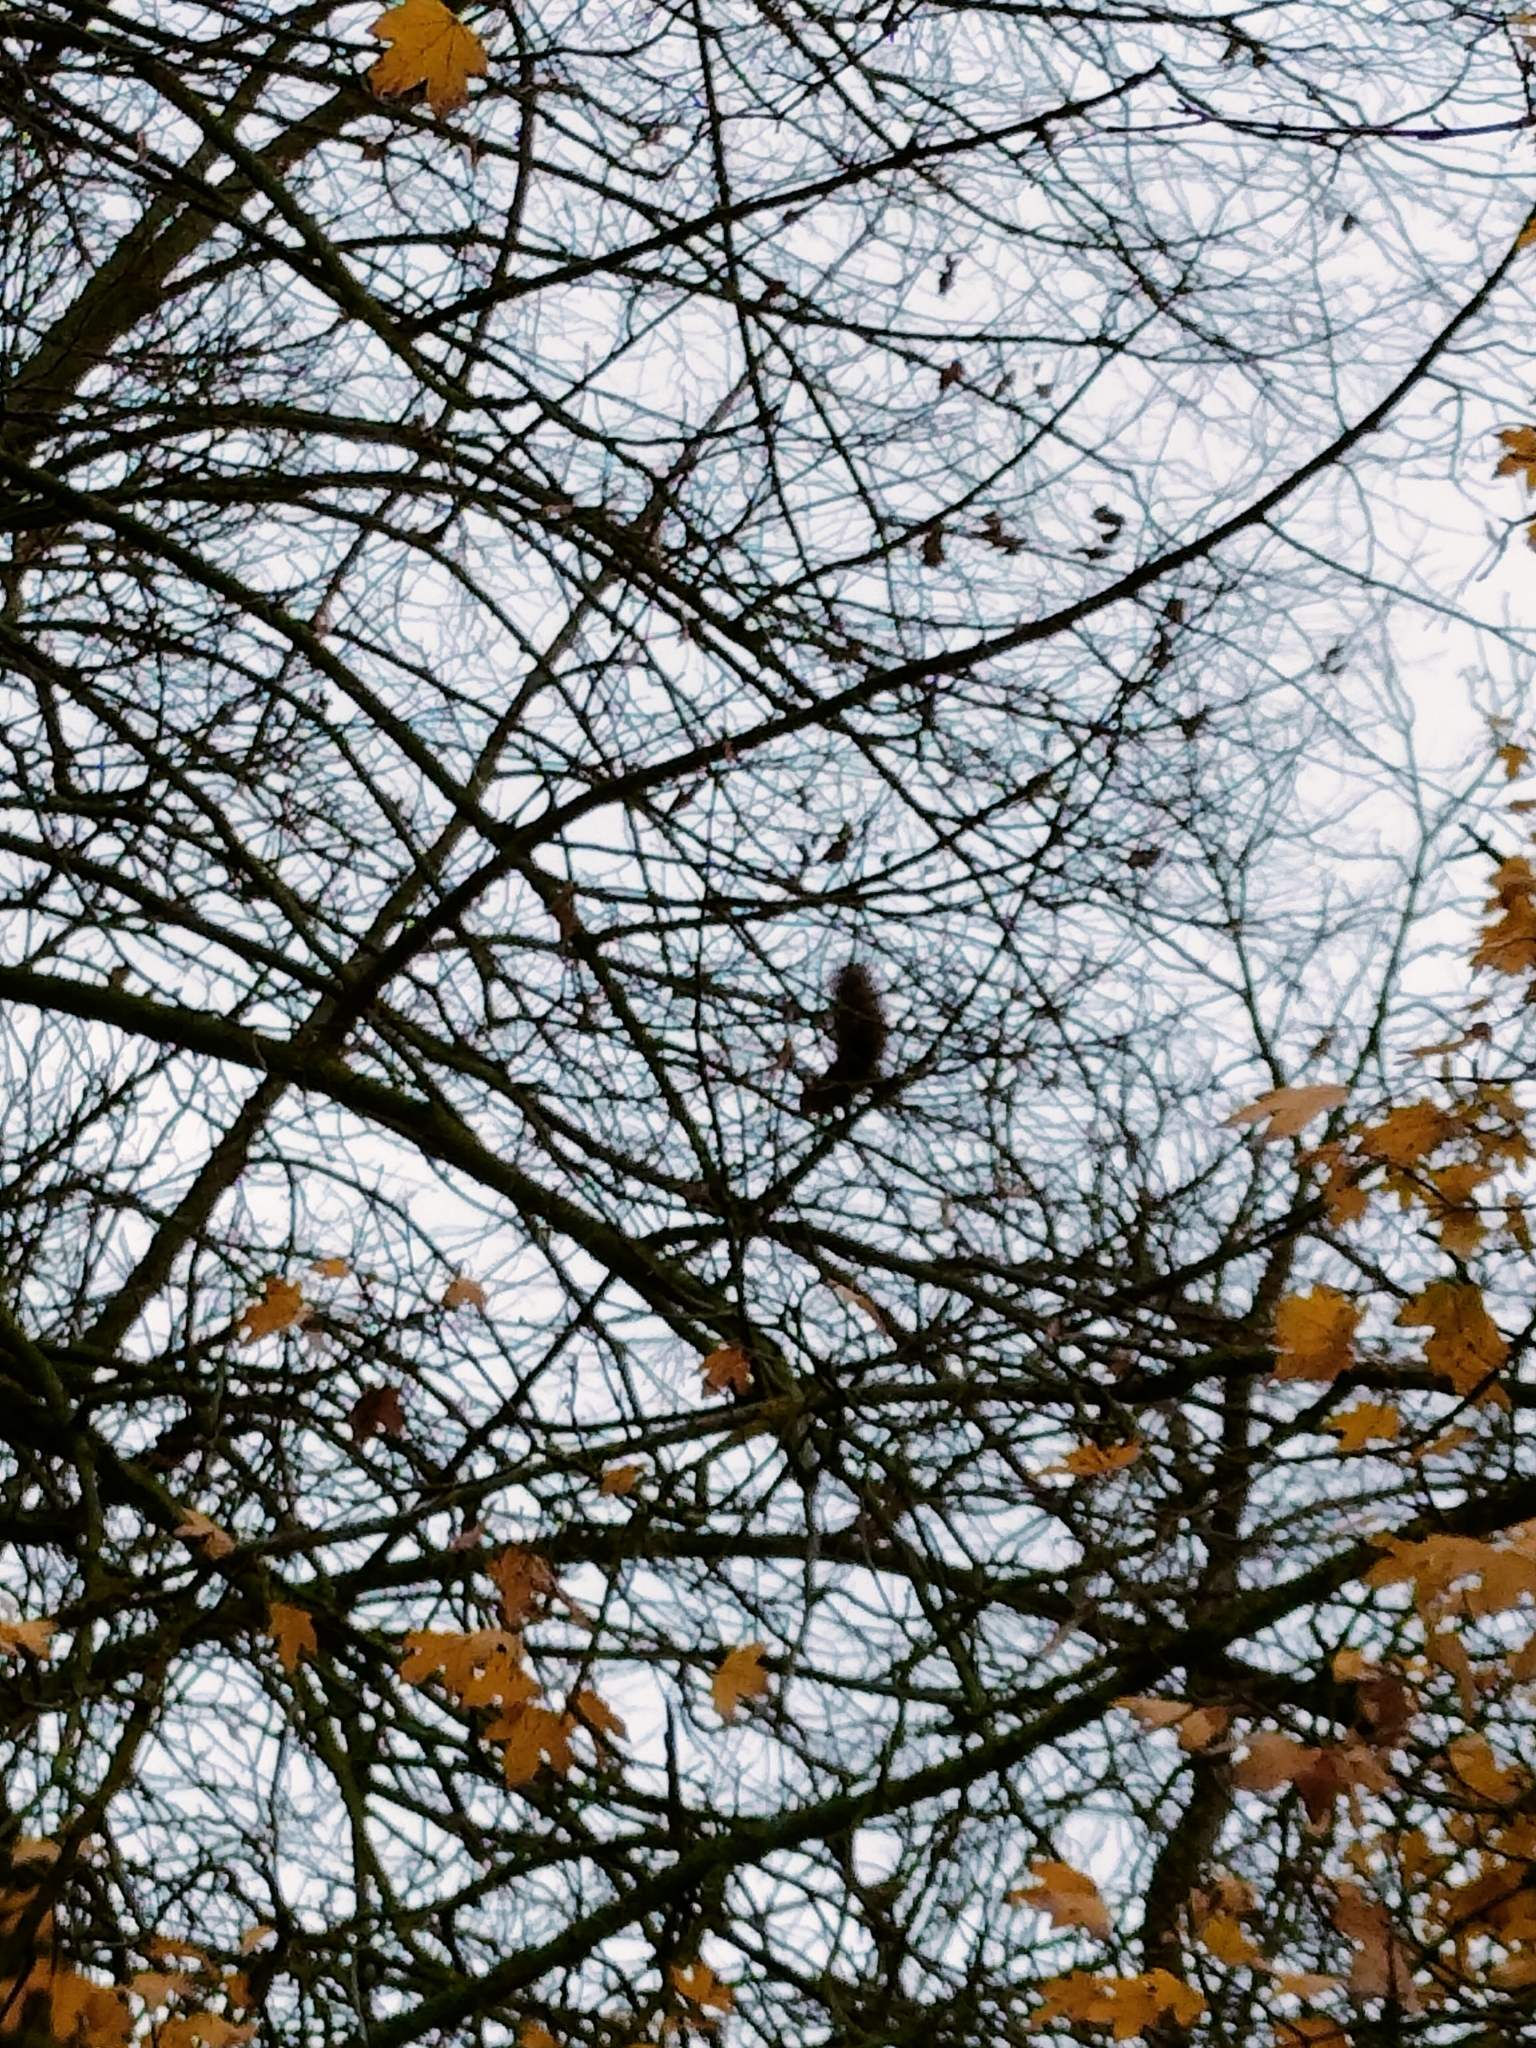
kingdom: Animalia
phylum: Chordata
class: Mammalia
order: Rodentia
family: Sciuridae
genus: Sciurus
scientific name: Sciurus vulgaris
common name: Eurasian red squirrel
